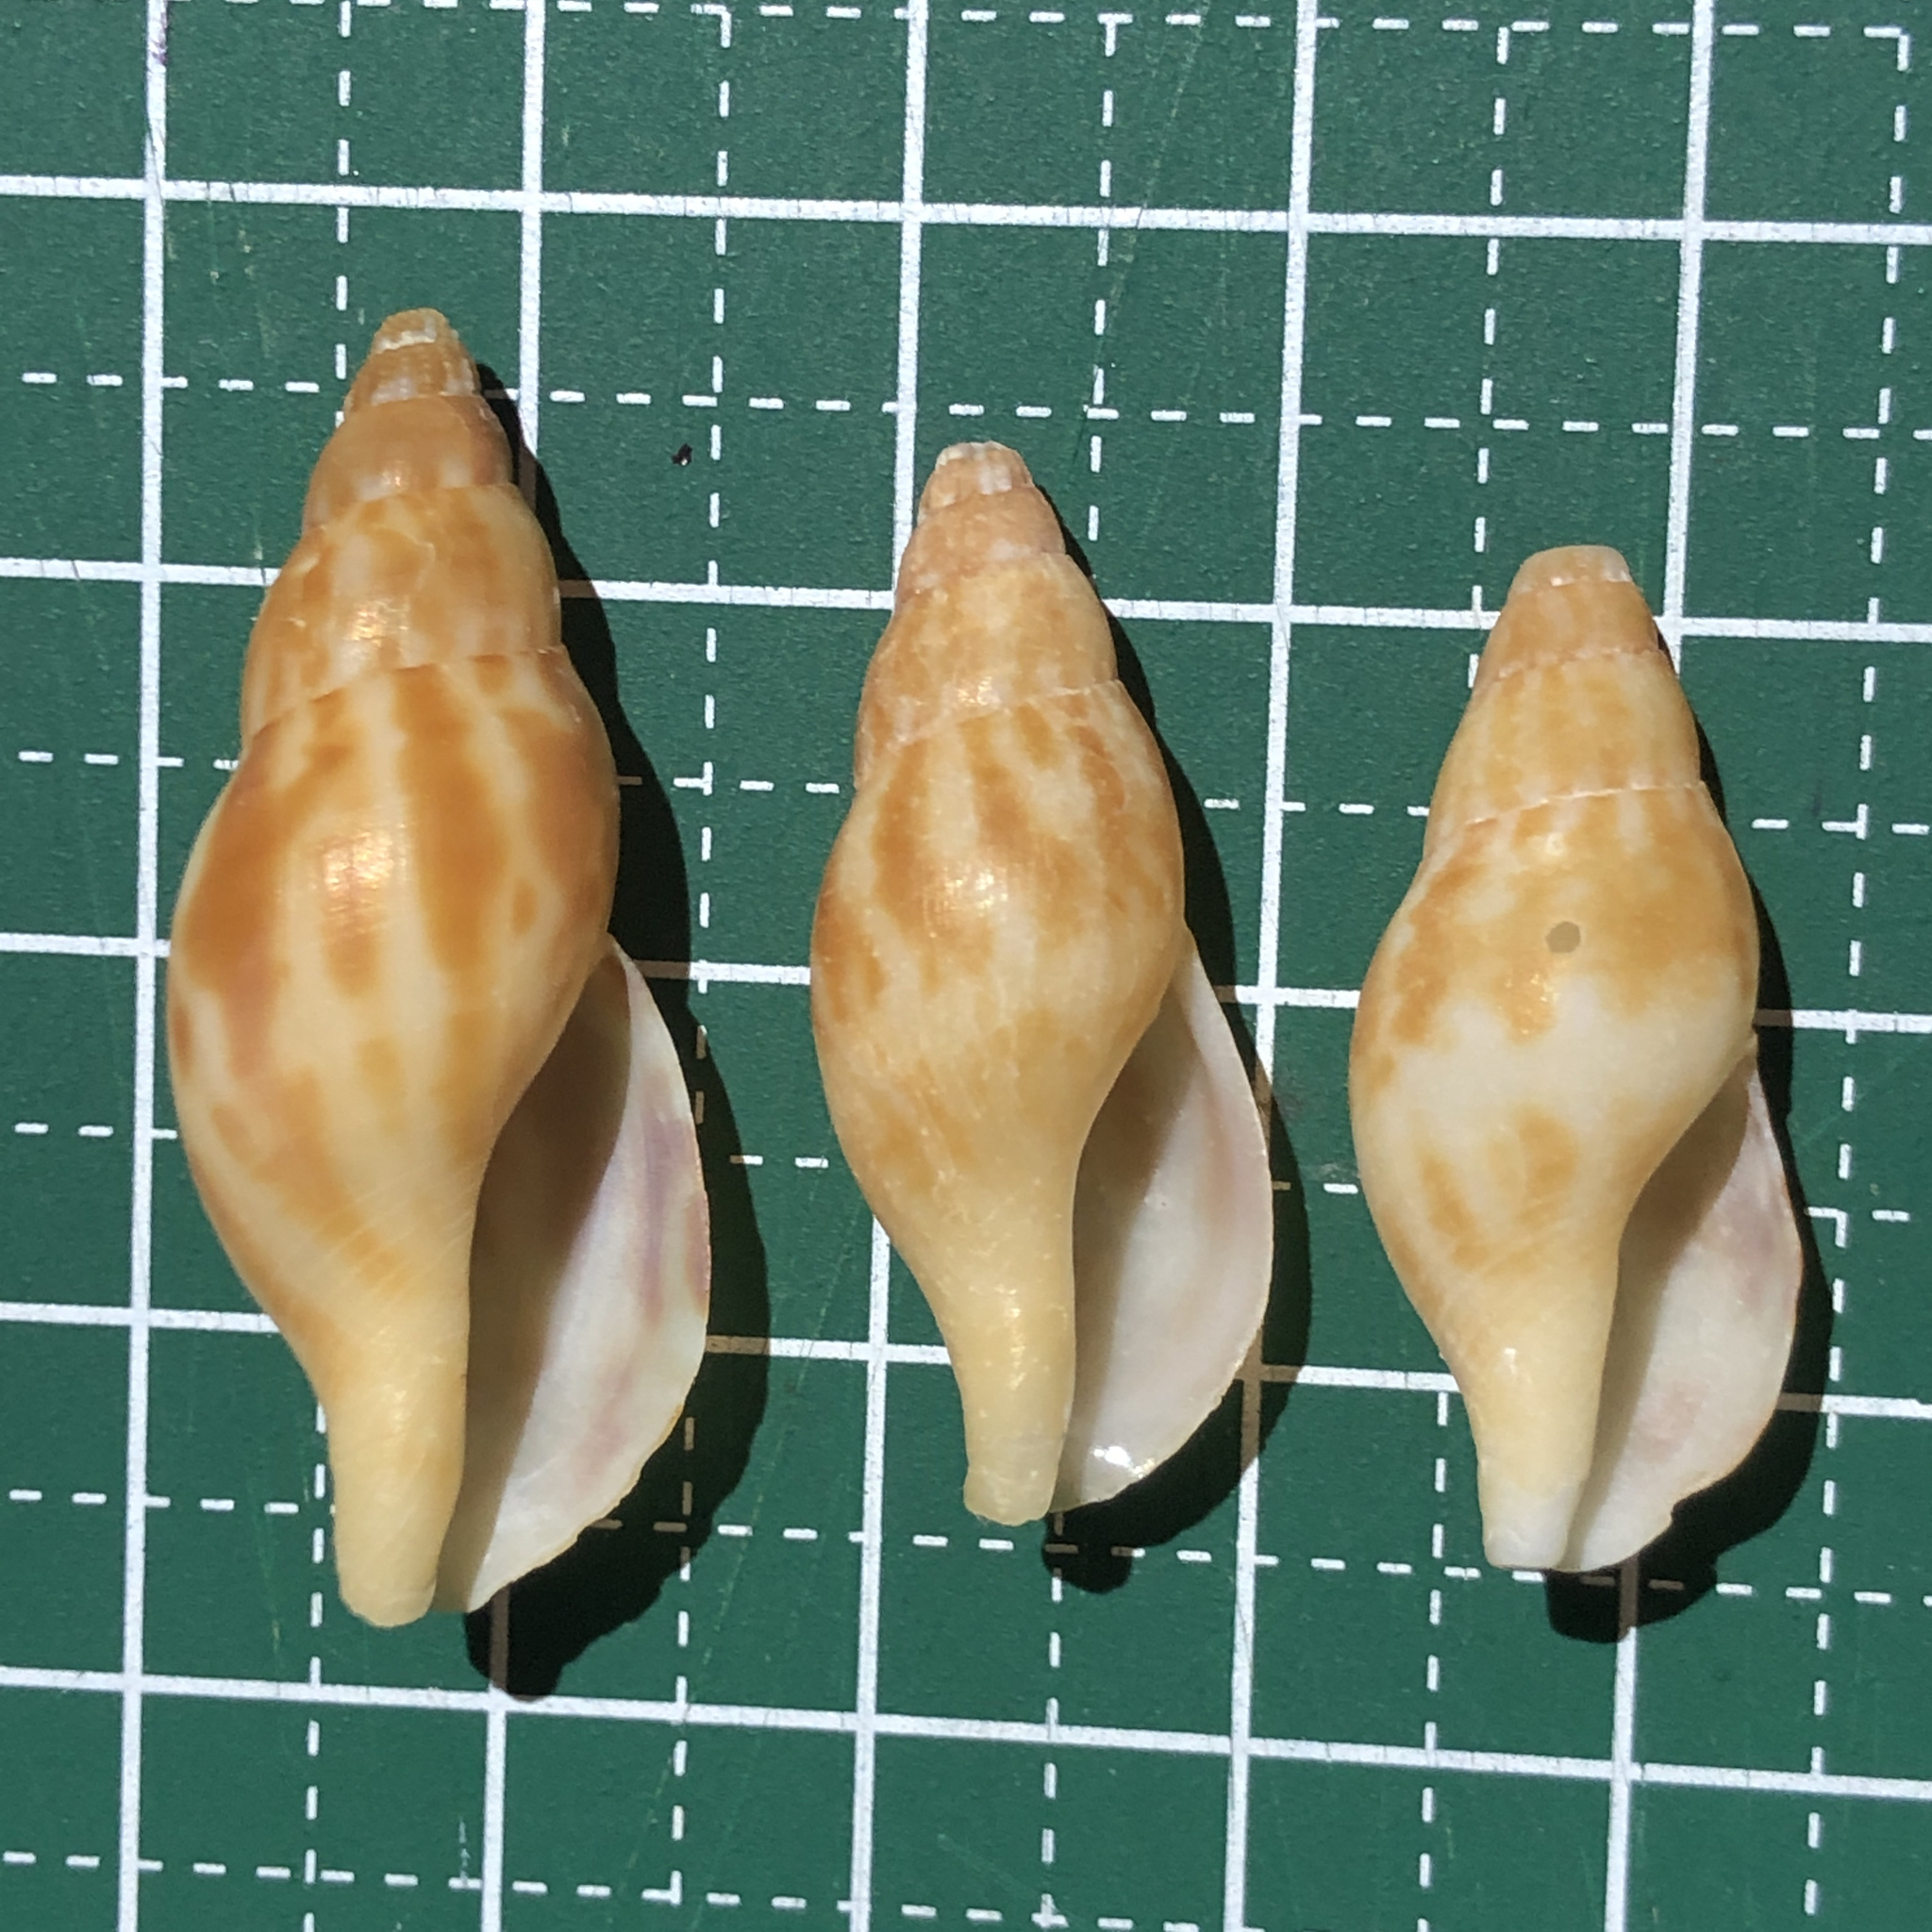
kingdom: Animalia
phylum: Mollusca
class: Gastropoda
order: Neogastropoda
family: Pisaniidae
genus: Pisania
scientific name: Pisania ignea
